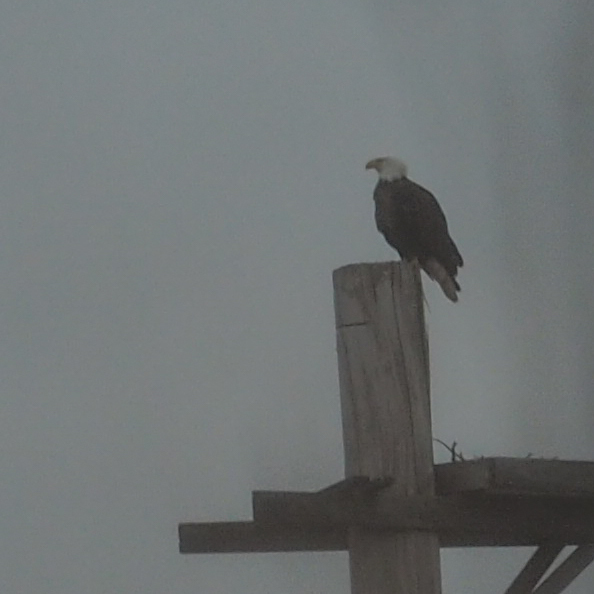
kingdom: Animalia
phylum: Chordata
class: Aves
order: Accipitriformes
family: Accipitridae
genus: Haliaeetus
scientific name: Haliaeetus leucocephalus
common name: Bald eagle
